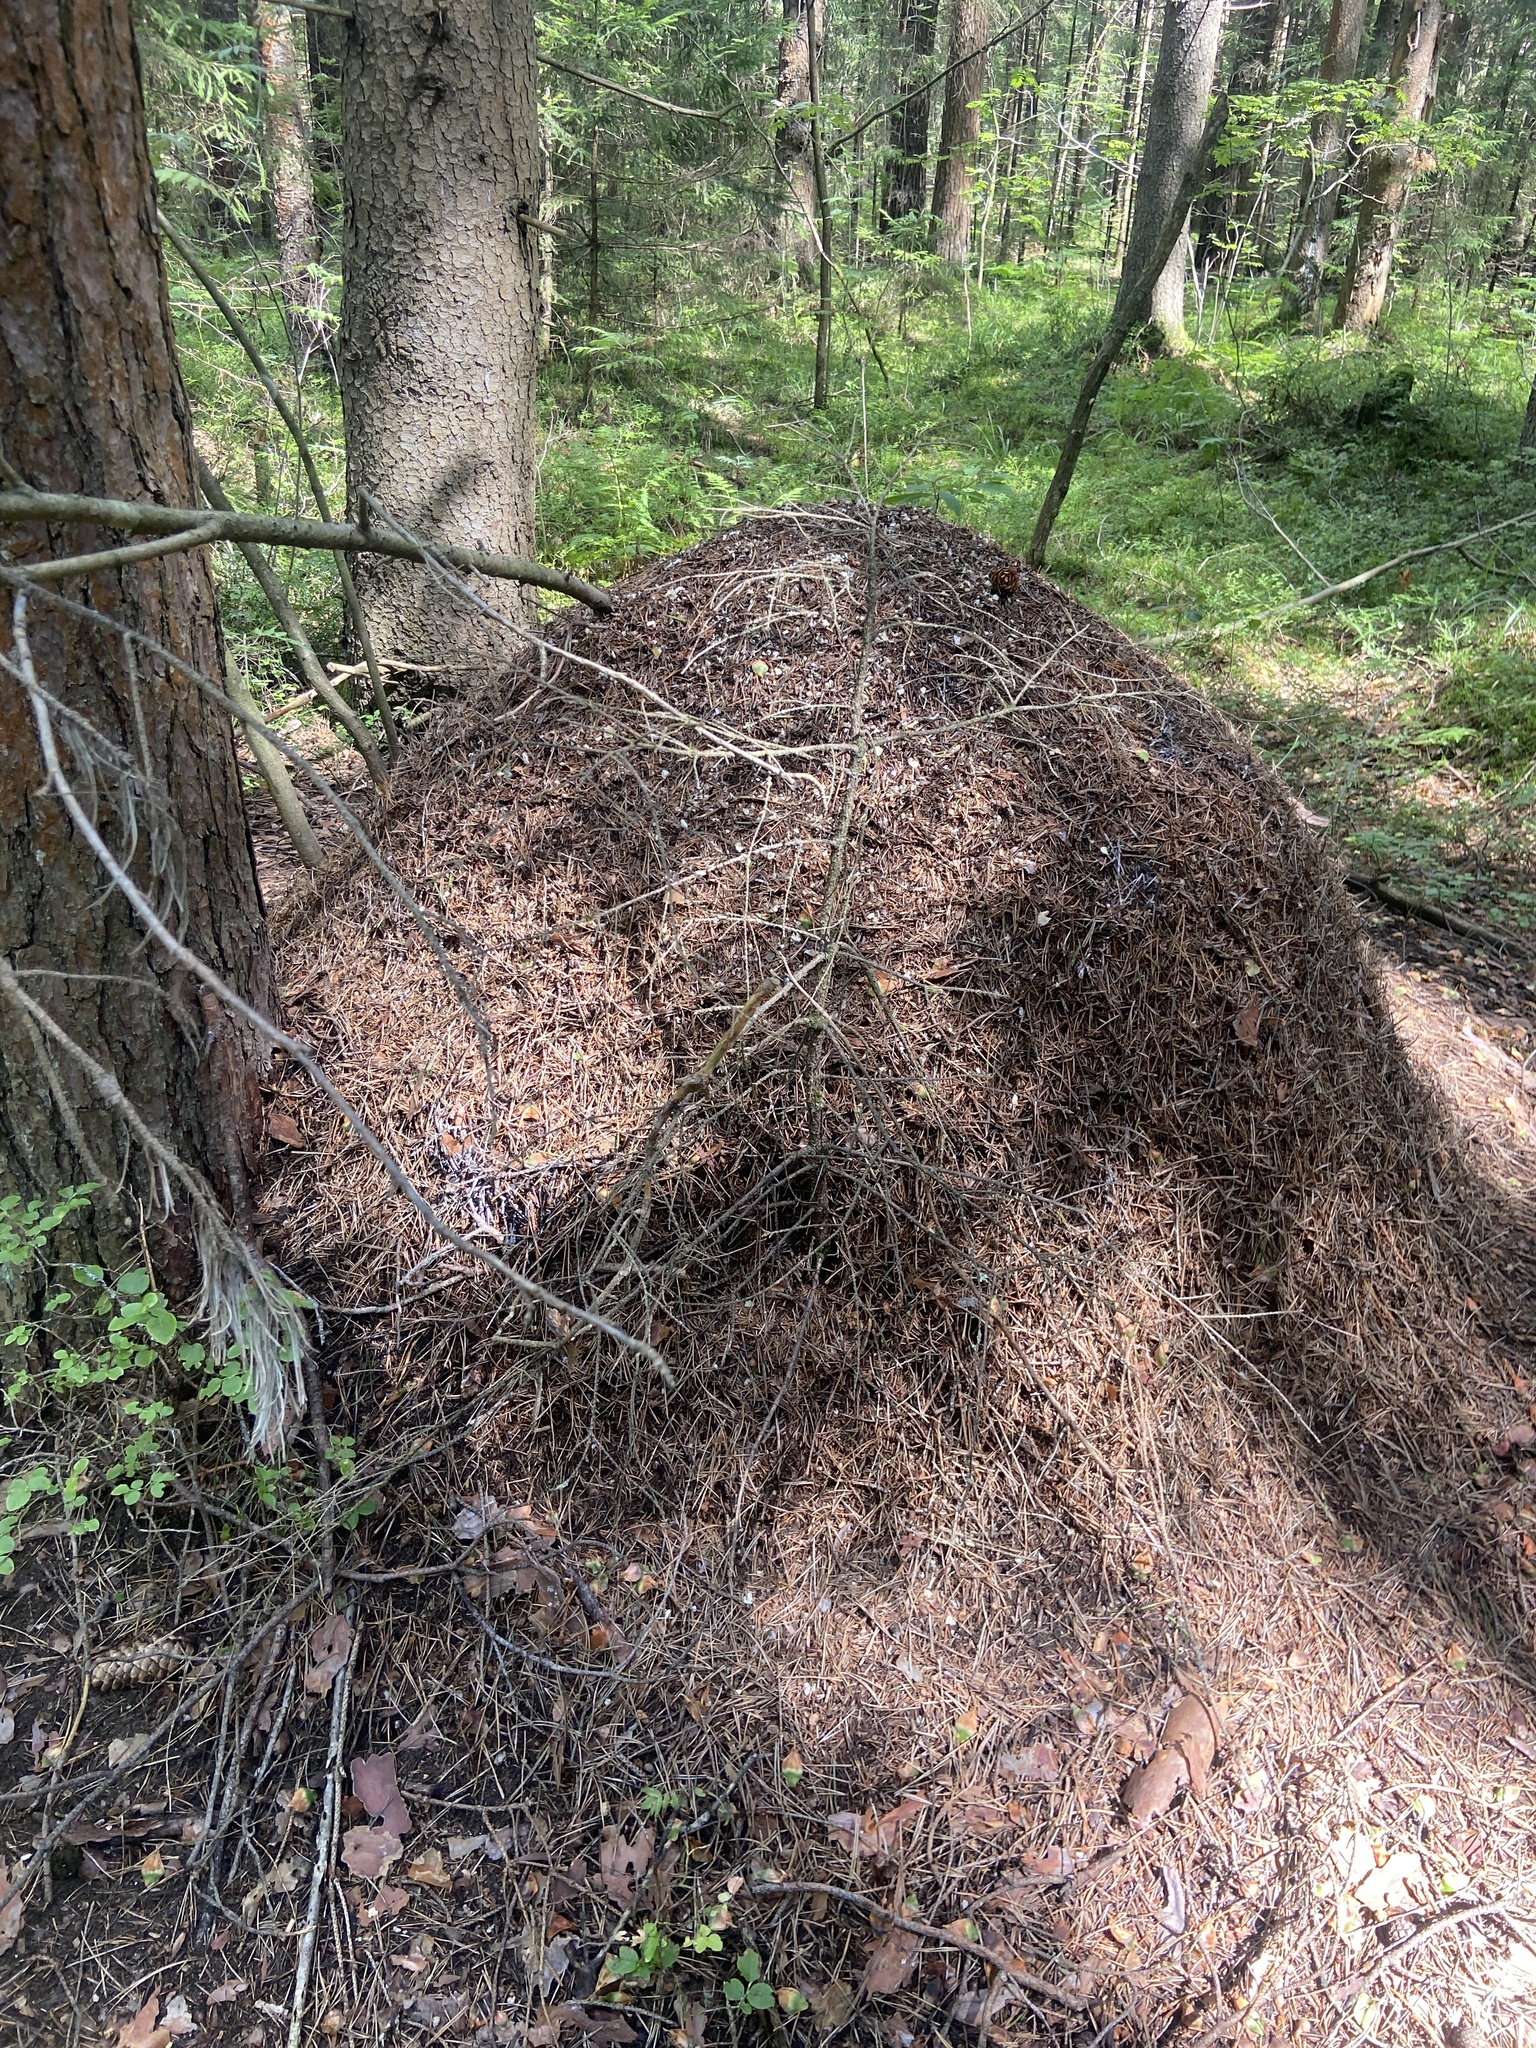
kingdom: Animalia
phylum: Arthropoda
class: Insecta
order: Hymenoptera
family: Formicidae
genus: Formica
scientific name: Formica rufa
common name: Red wood ant
